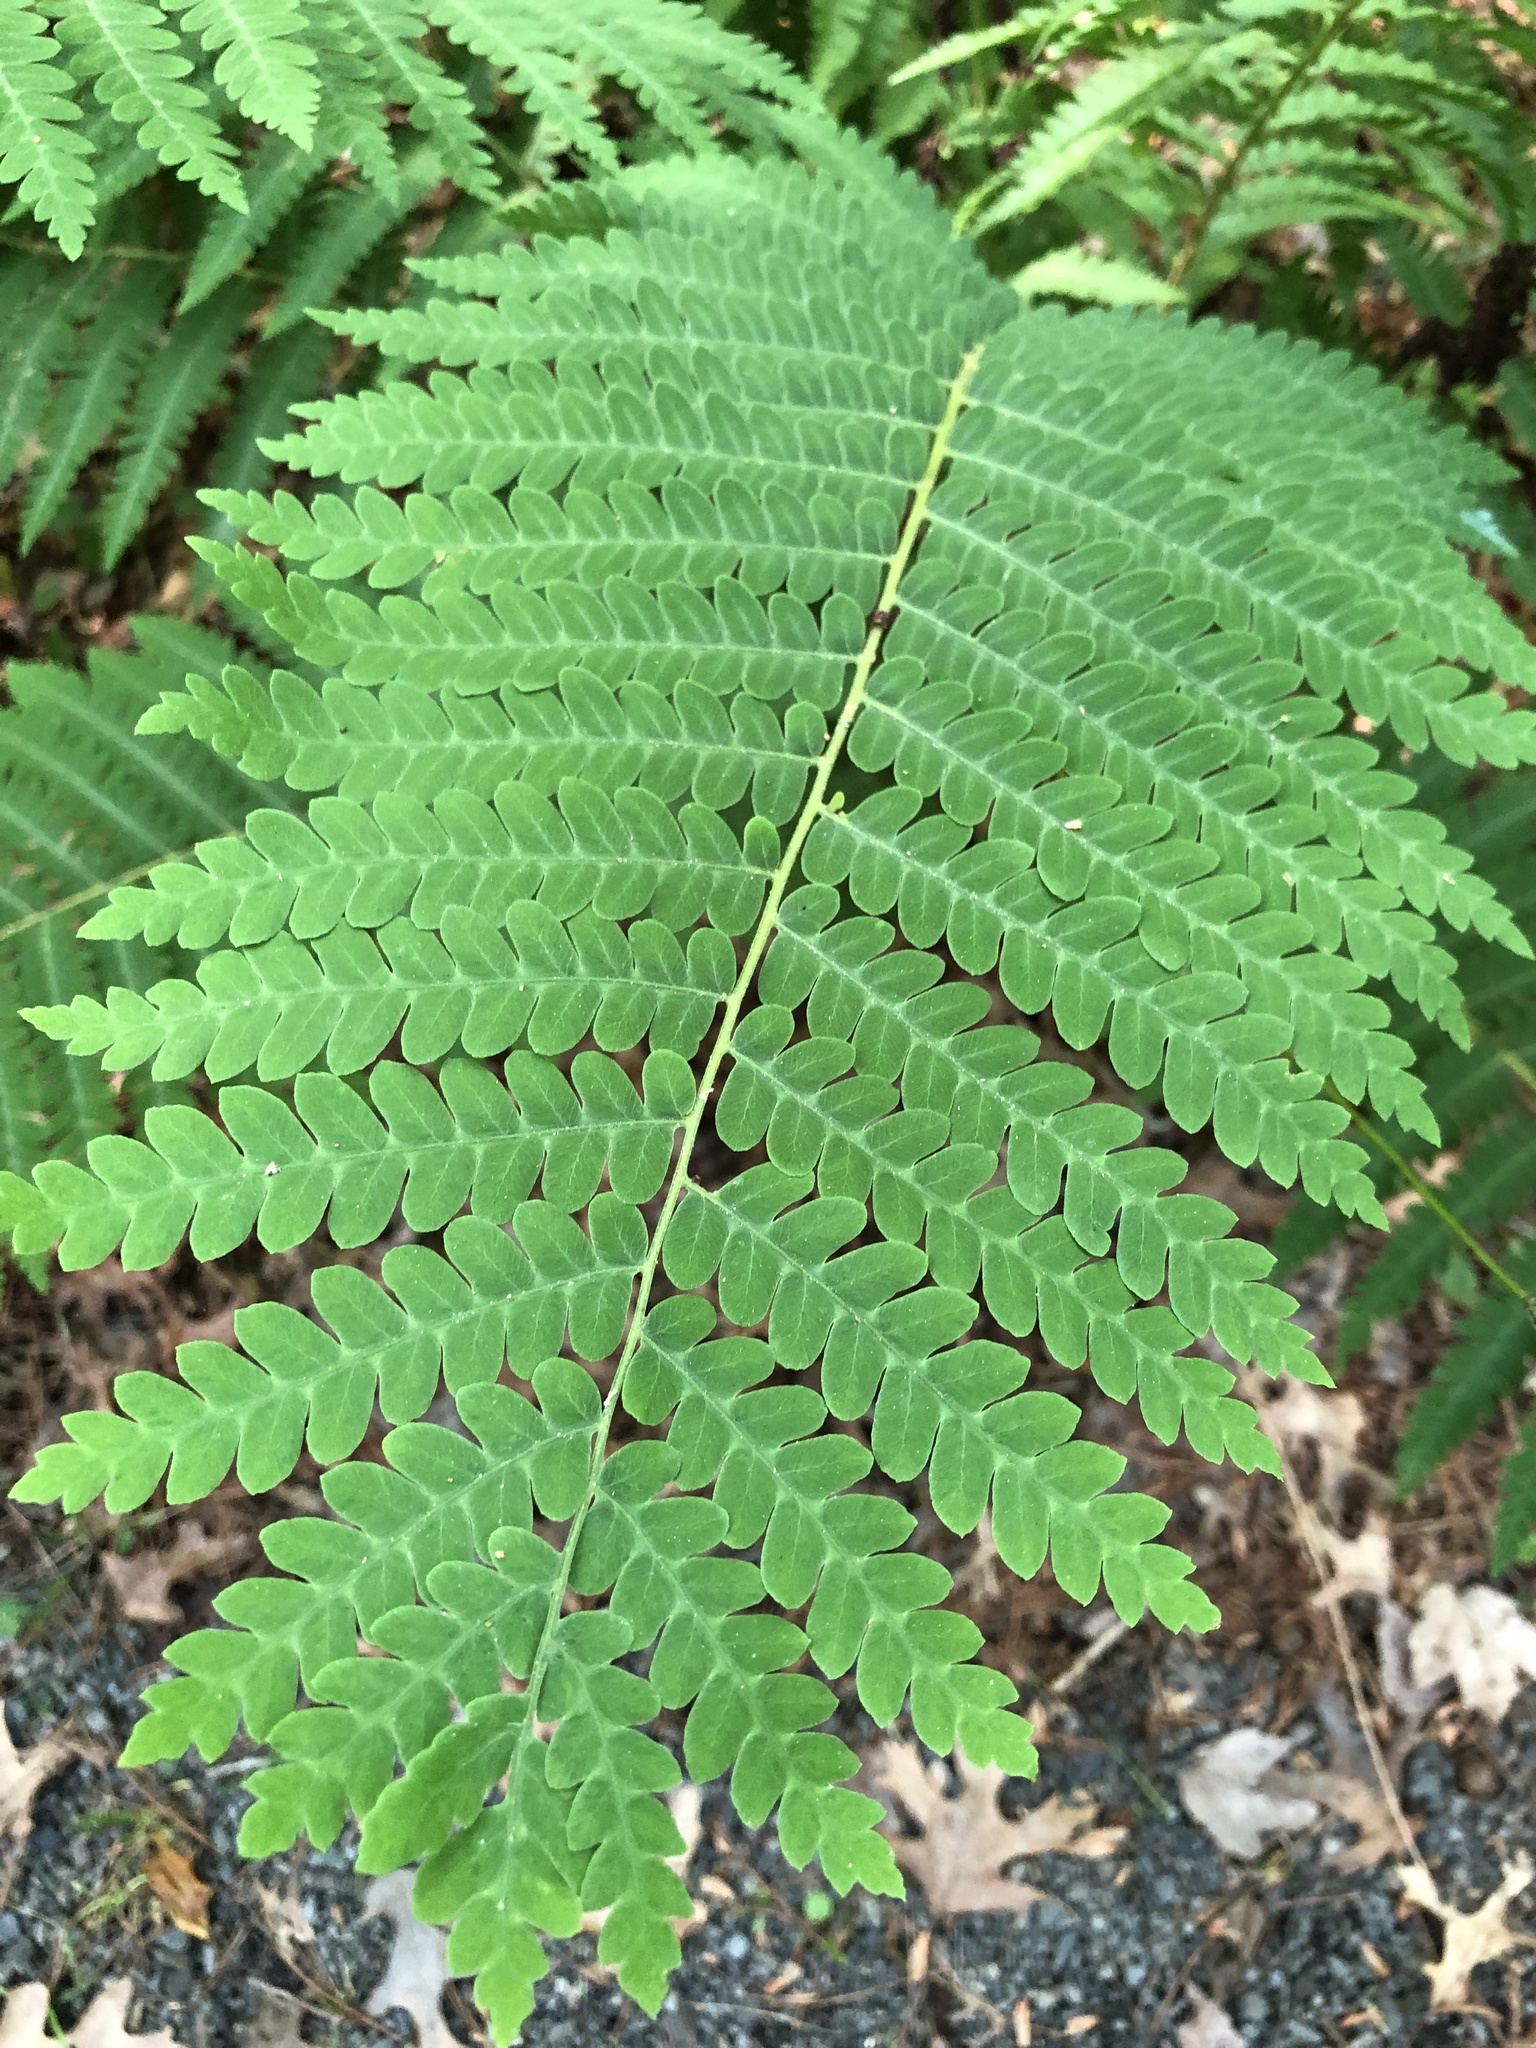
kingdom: Plantae
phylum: Tracheophyta
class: Polypodiopsida
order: Osmundales
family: Osmundaceae
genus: Claytosmunda
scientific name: Claytosmunda claytoniana
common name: Clayton's fern
